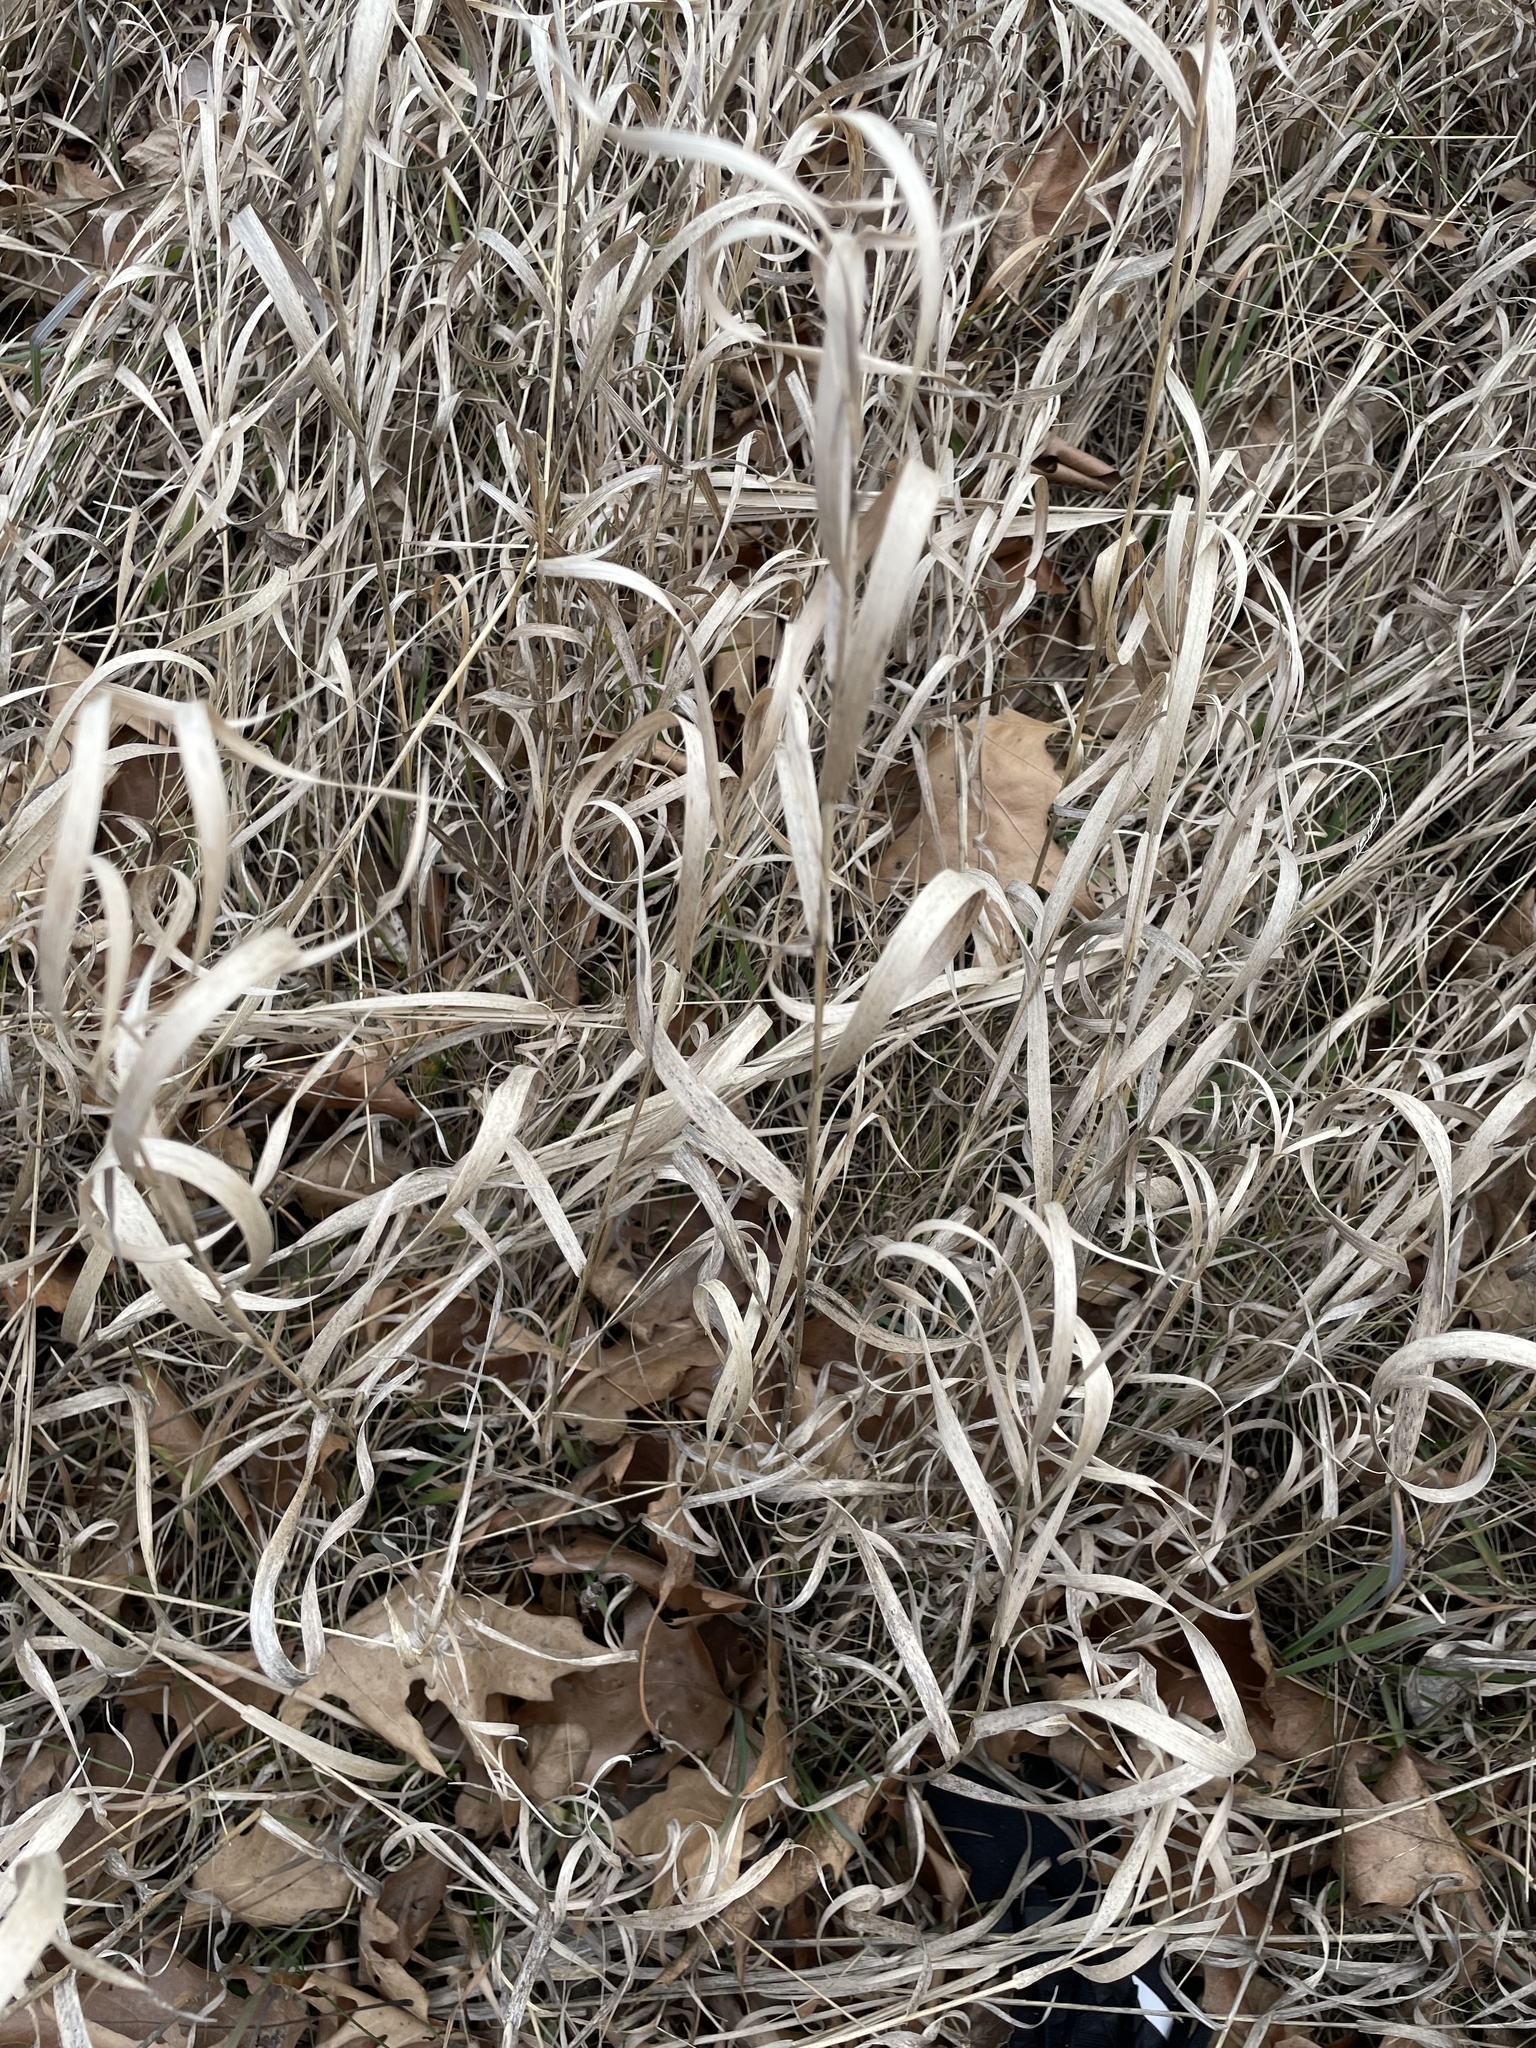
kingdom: Plantae
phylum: Tracheophyta
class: Liliopsida
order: Poales
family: Poaceae
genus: Bromus
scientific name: Bromus inermis
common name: Smooth brome
